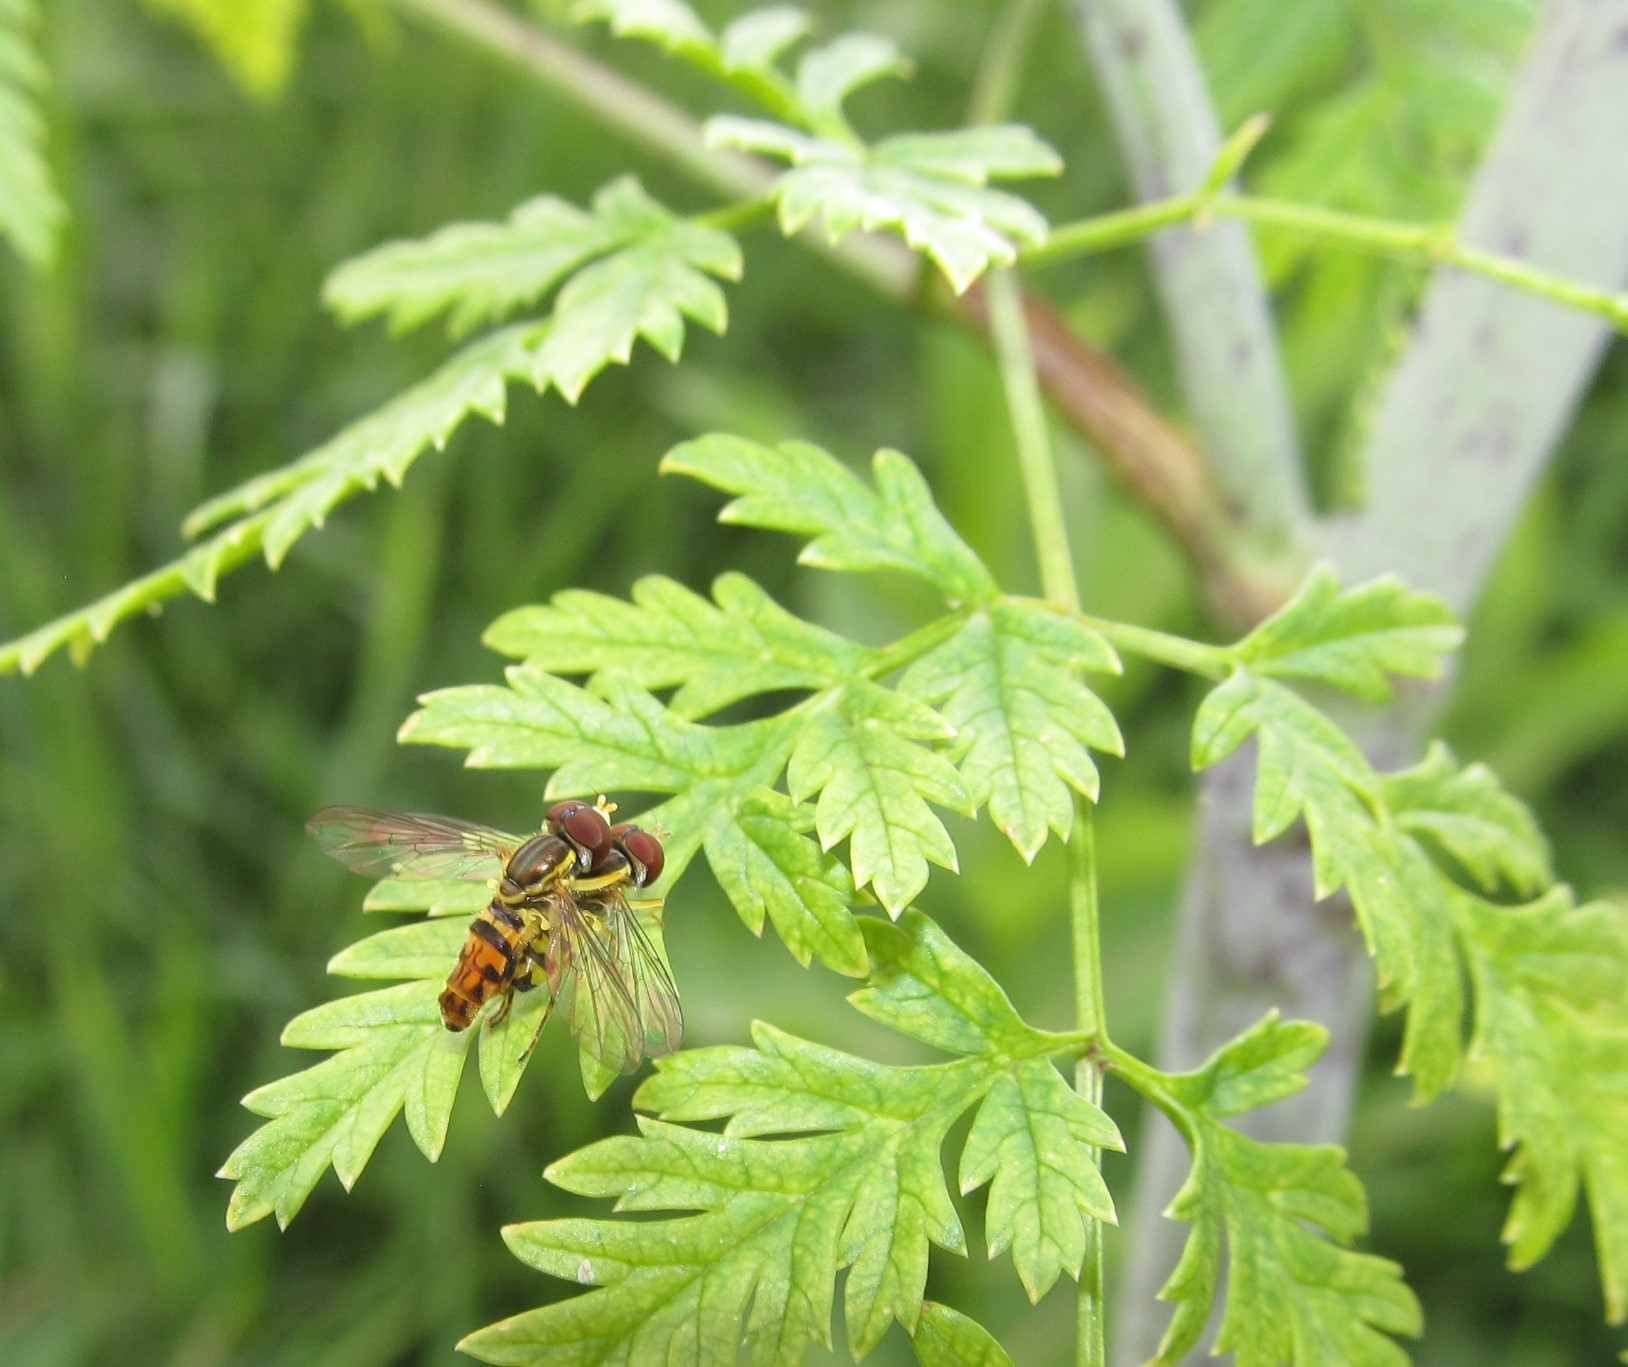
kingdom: Animalia
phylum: Arthropoda
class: Insecta
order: Diptera
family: Syrphidae
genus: Toxomerus
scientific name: Toxomerus geminatus
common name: Eastern calligrapher
